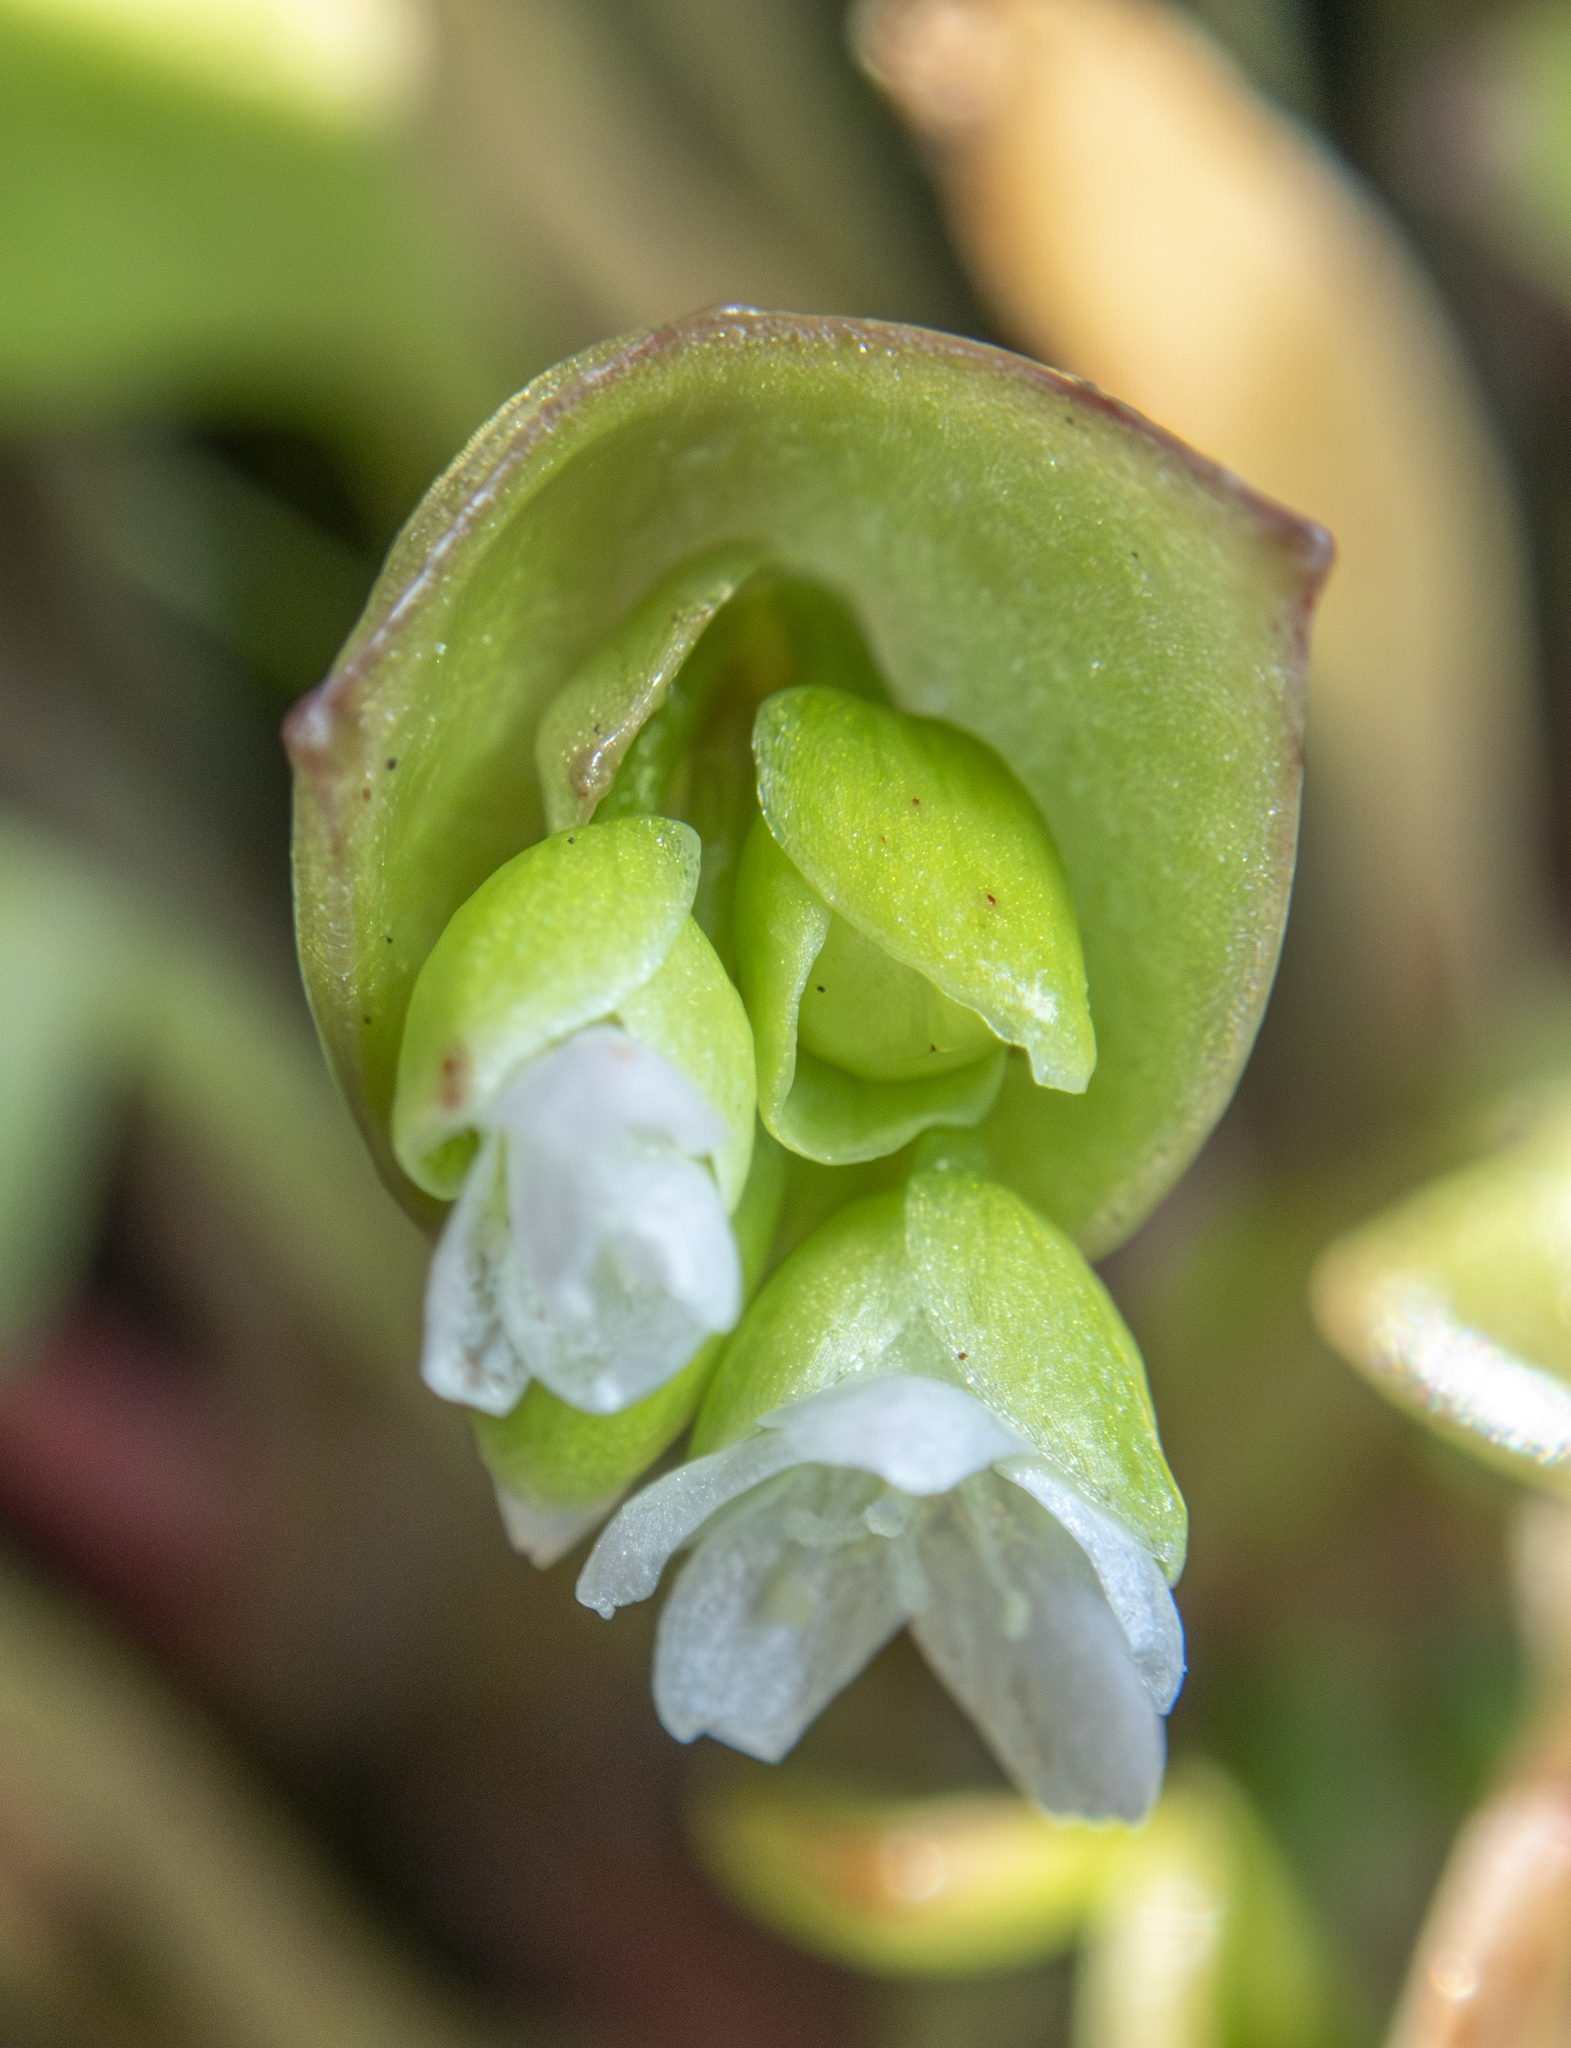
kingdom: Plantae
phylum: Tracheophyta
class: Magnoliopsida
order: Caryophyllales
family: Montiaceae
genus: Claytonia
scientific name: Claytonia rubra
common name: Erubescent miner's-lettuce
